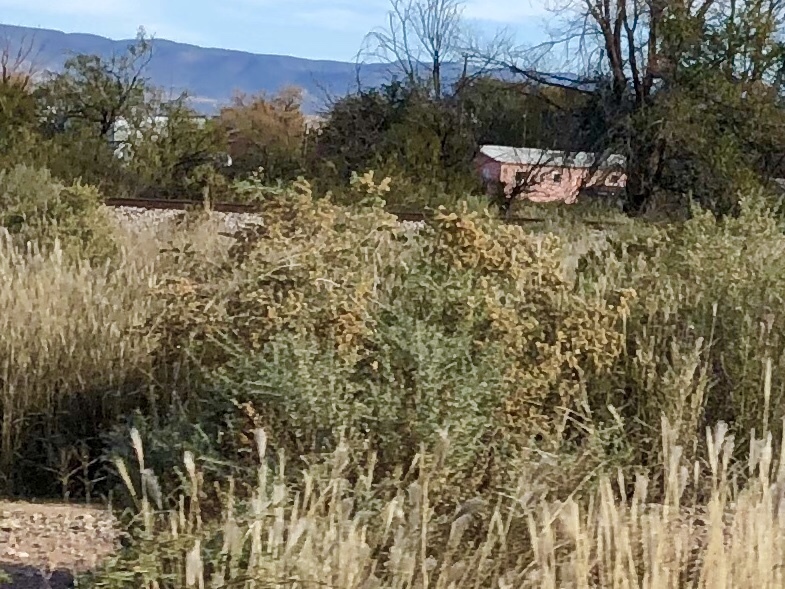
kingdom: Plantae
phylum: Tracheophyta
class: Magnoliopsida
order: Caryophyllales
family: Amaranthaceae
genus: Atriplex
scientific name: Atriplex canescens
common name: Four-wing saltbush
